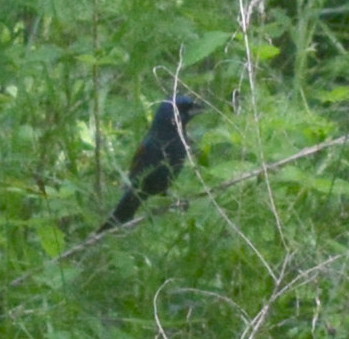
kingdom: Animalia
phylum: Chordata
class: Aves
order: Passeriformes
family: Cardinalidae
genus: Passerina
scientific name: Passerina caerulea
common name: Blue grosbeak
